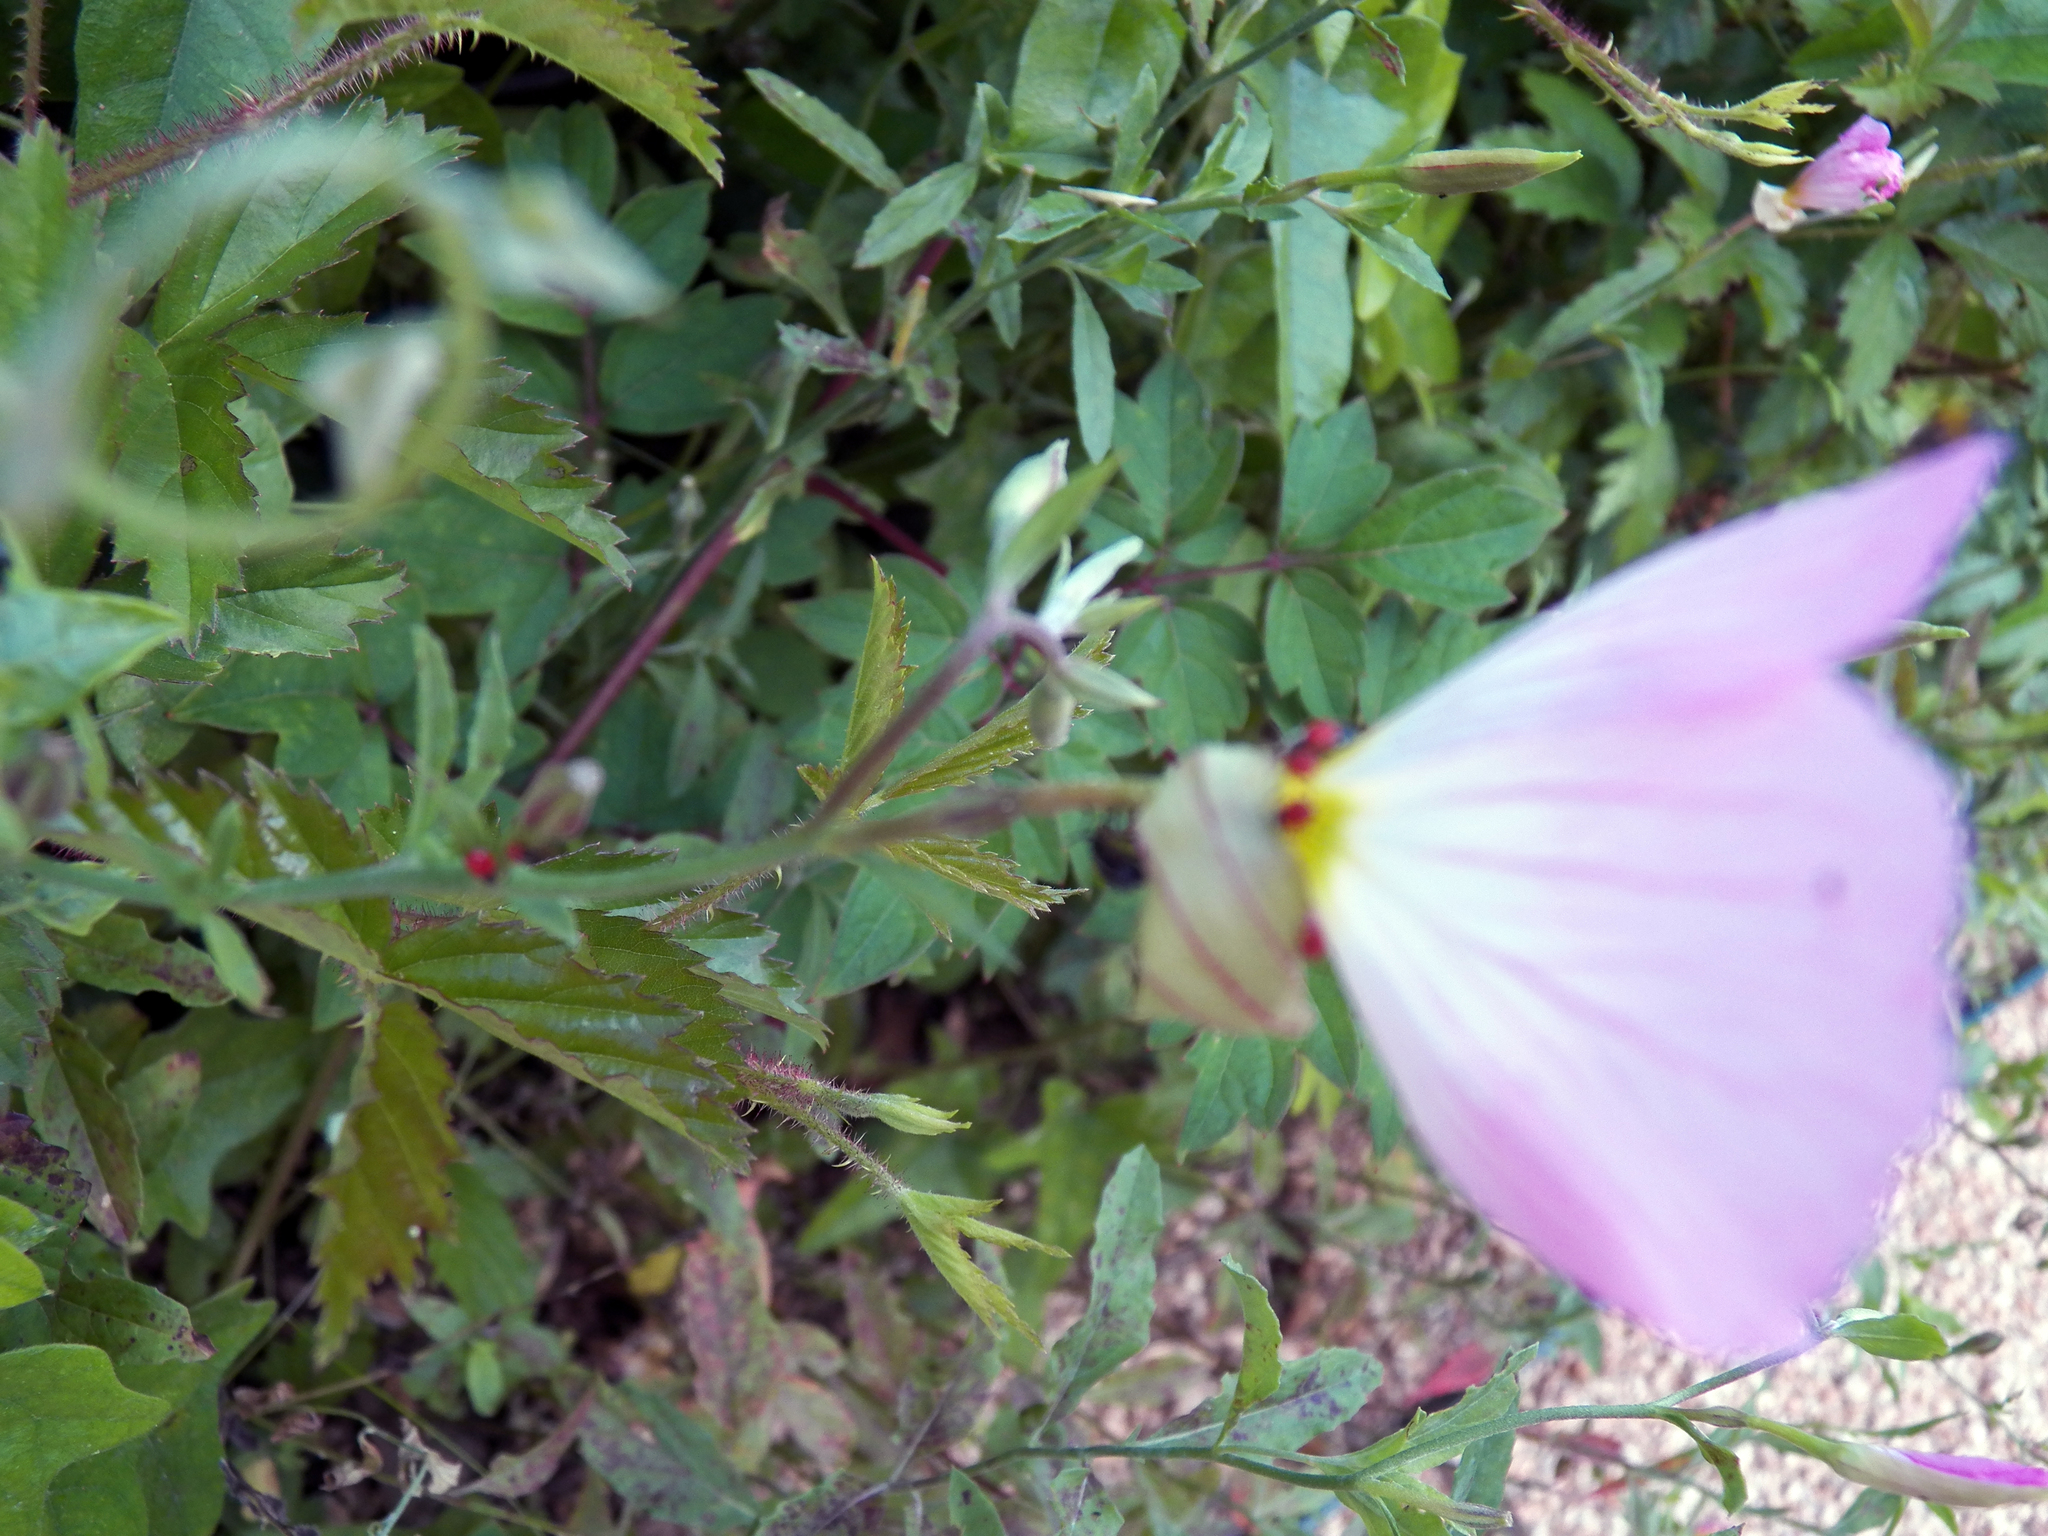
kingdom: Plantae
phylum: Tracheophyta
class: Magnoliopsida
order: Myrtales
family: Onagraceae
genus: Oenothera
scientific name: Oenothera speciosa
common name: White evening-primrose
